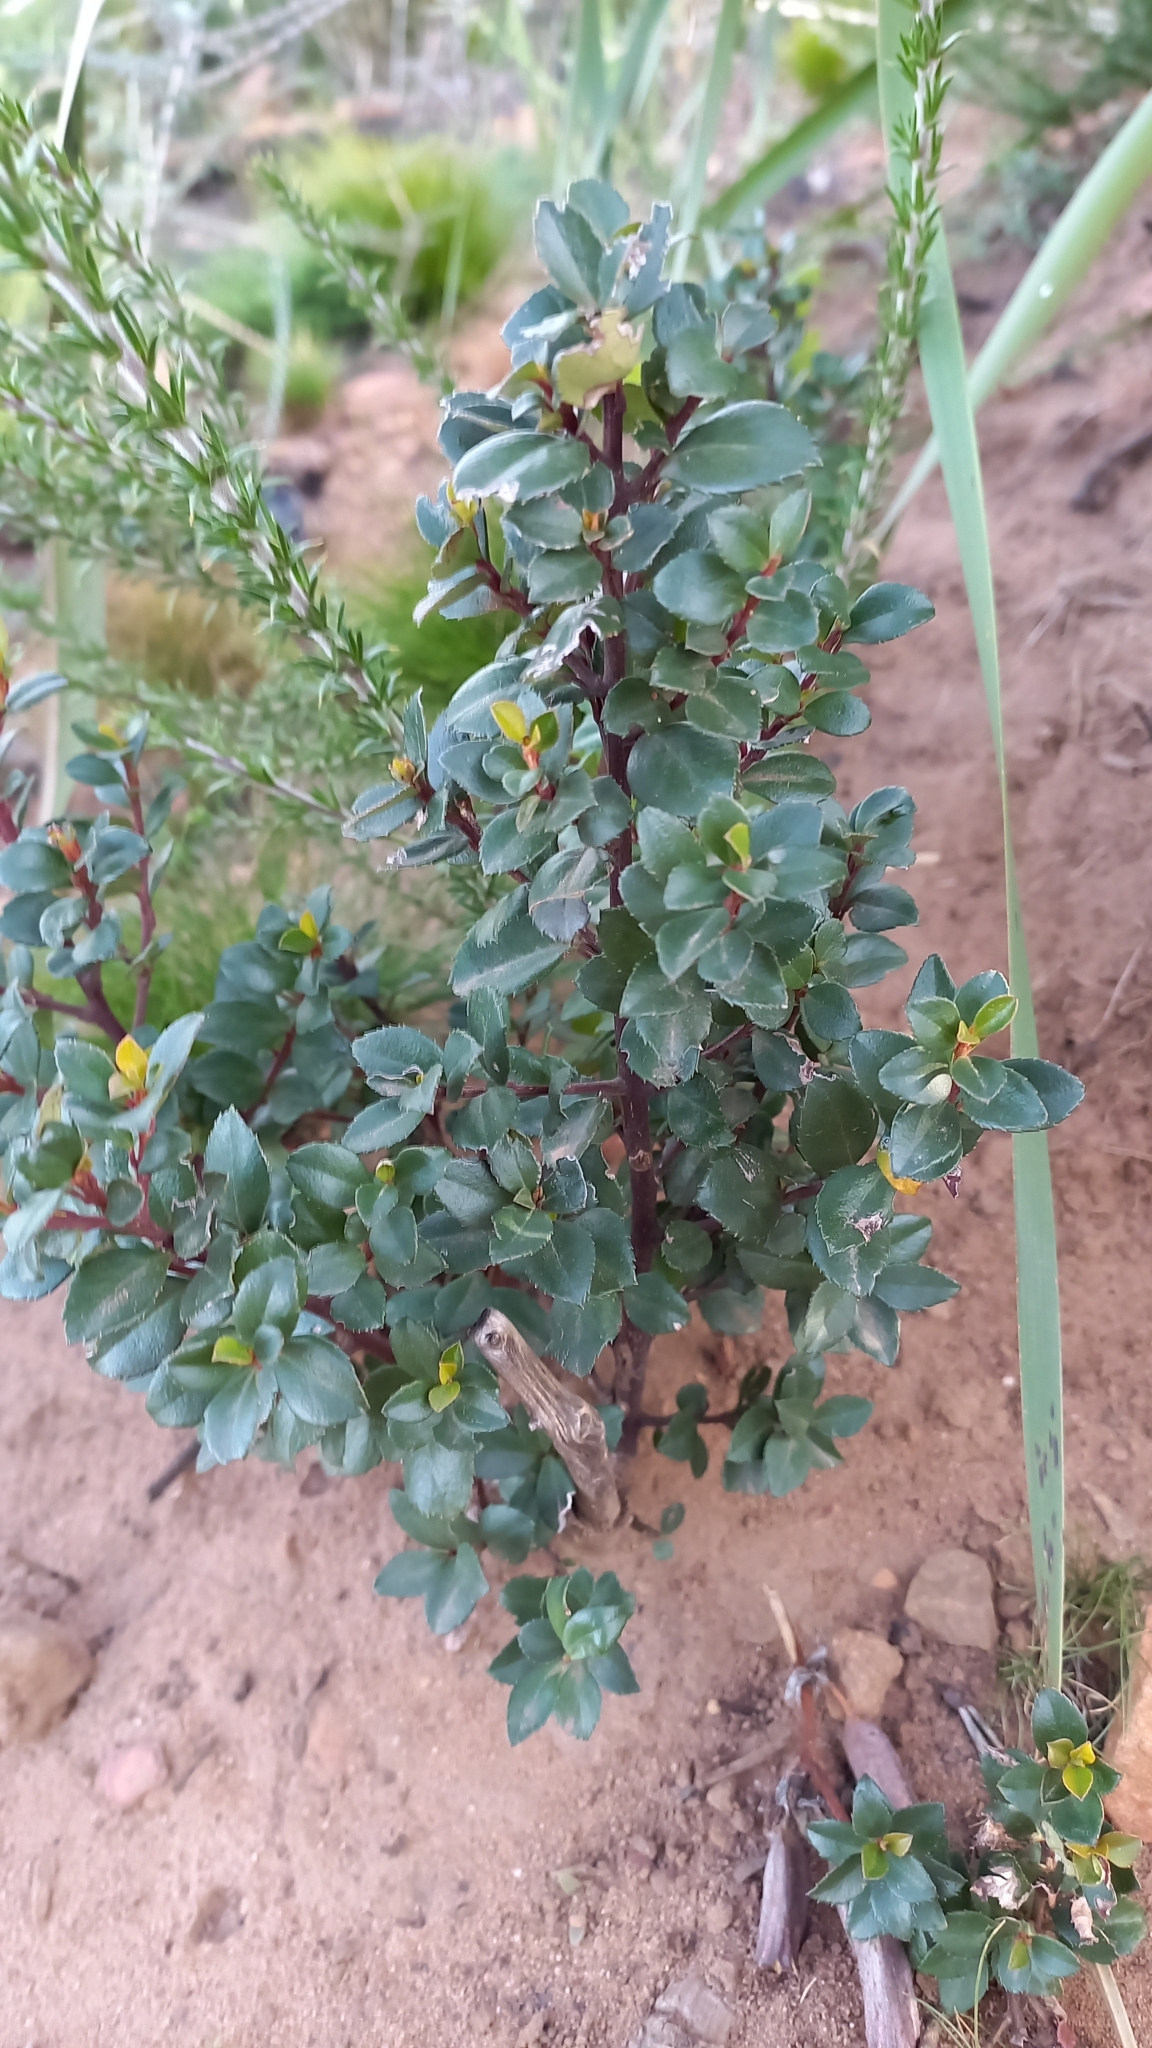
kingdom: Plantae
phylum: Tracheophyta
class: Magnoliopsida
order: Ericales
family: Primulaceae
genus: Myrsine
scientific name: Myrsine africana
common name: African-boxwood
